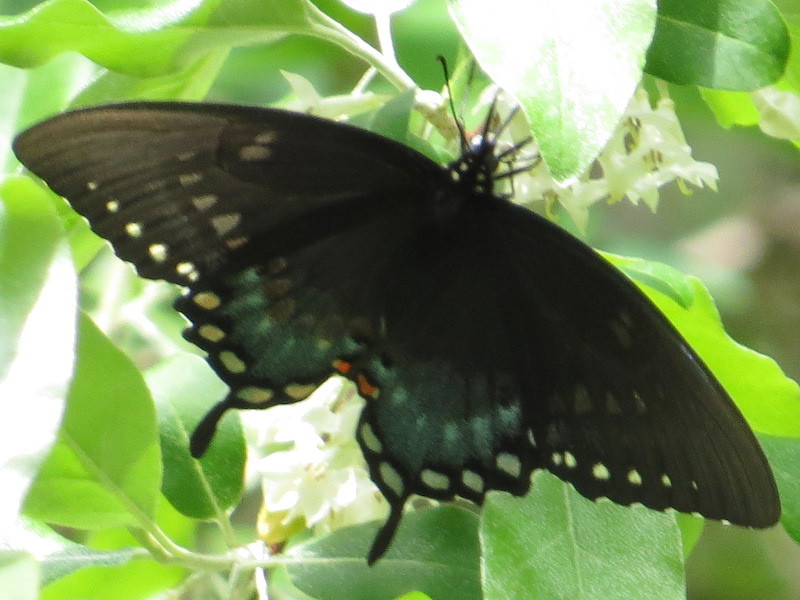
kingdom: Animalia
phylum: Arthropoda
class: Insecta
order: Lepidoptera
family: Papilionidae
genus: Papilio
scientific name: Papilio troilus
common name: Spicebush swallowtail
